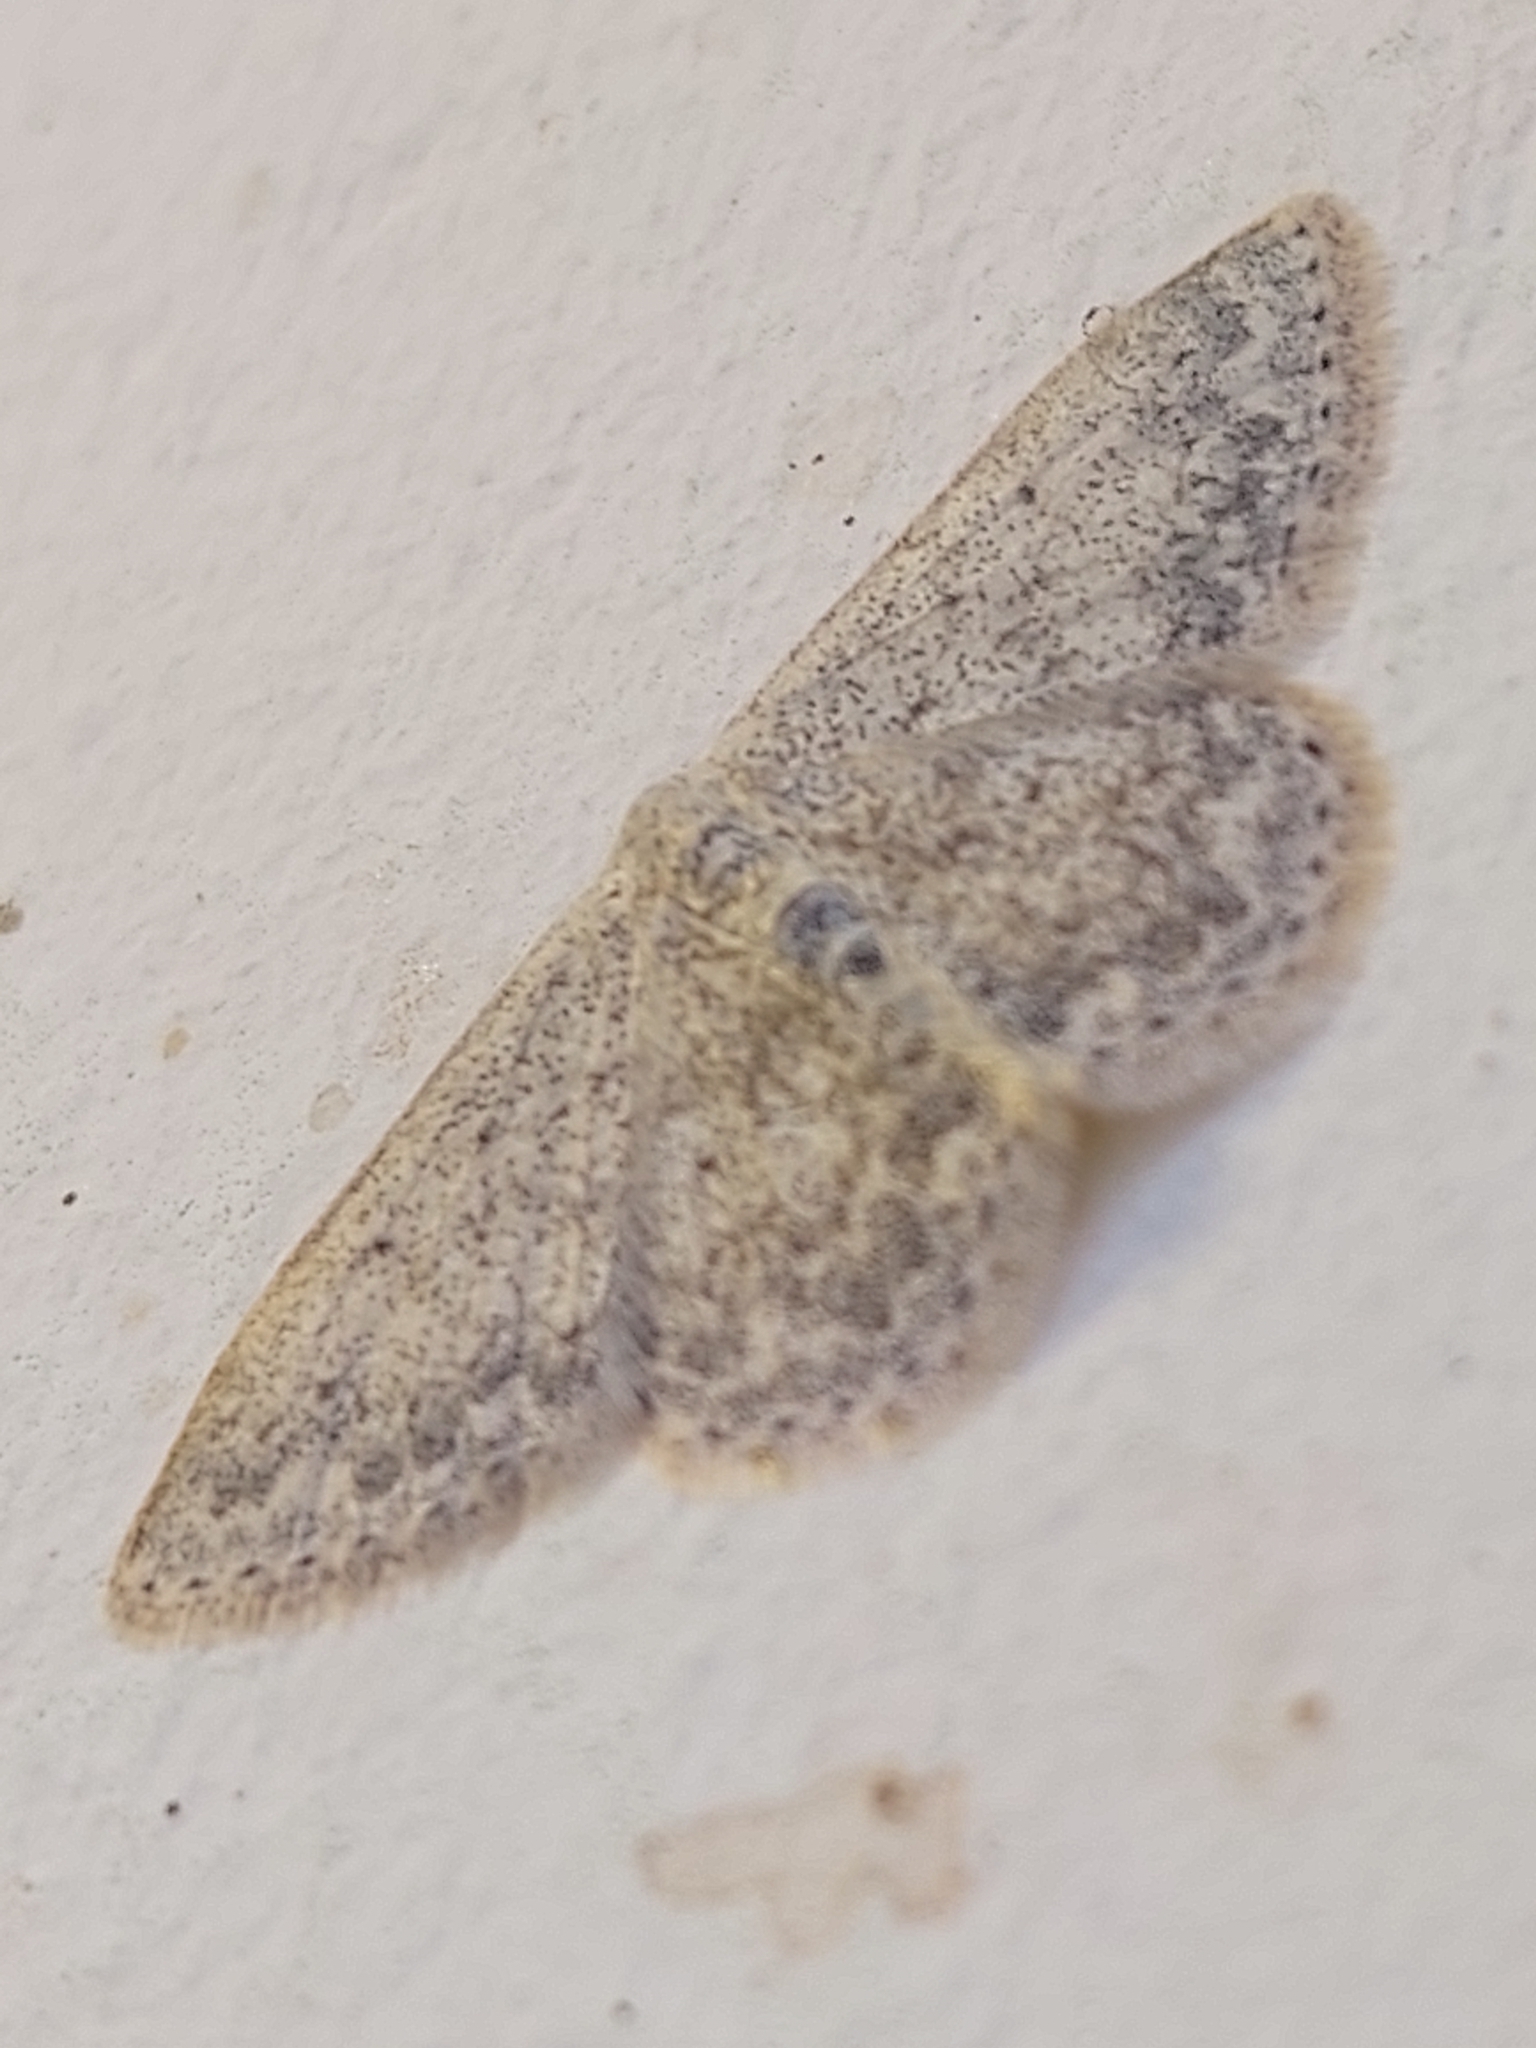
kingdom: Animalia
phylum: Arthropoda
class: Insecta
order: Lepidoptera
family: Geometridae
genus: Scopula
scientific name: Scopula marginepunctata
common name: Mullein wave
